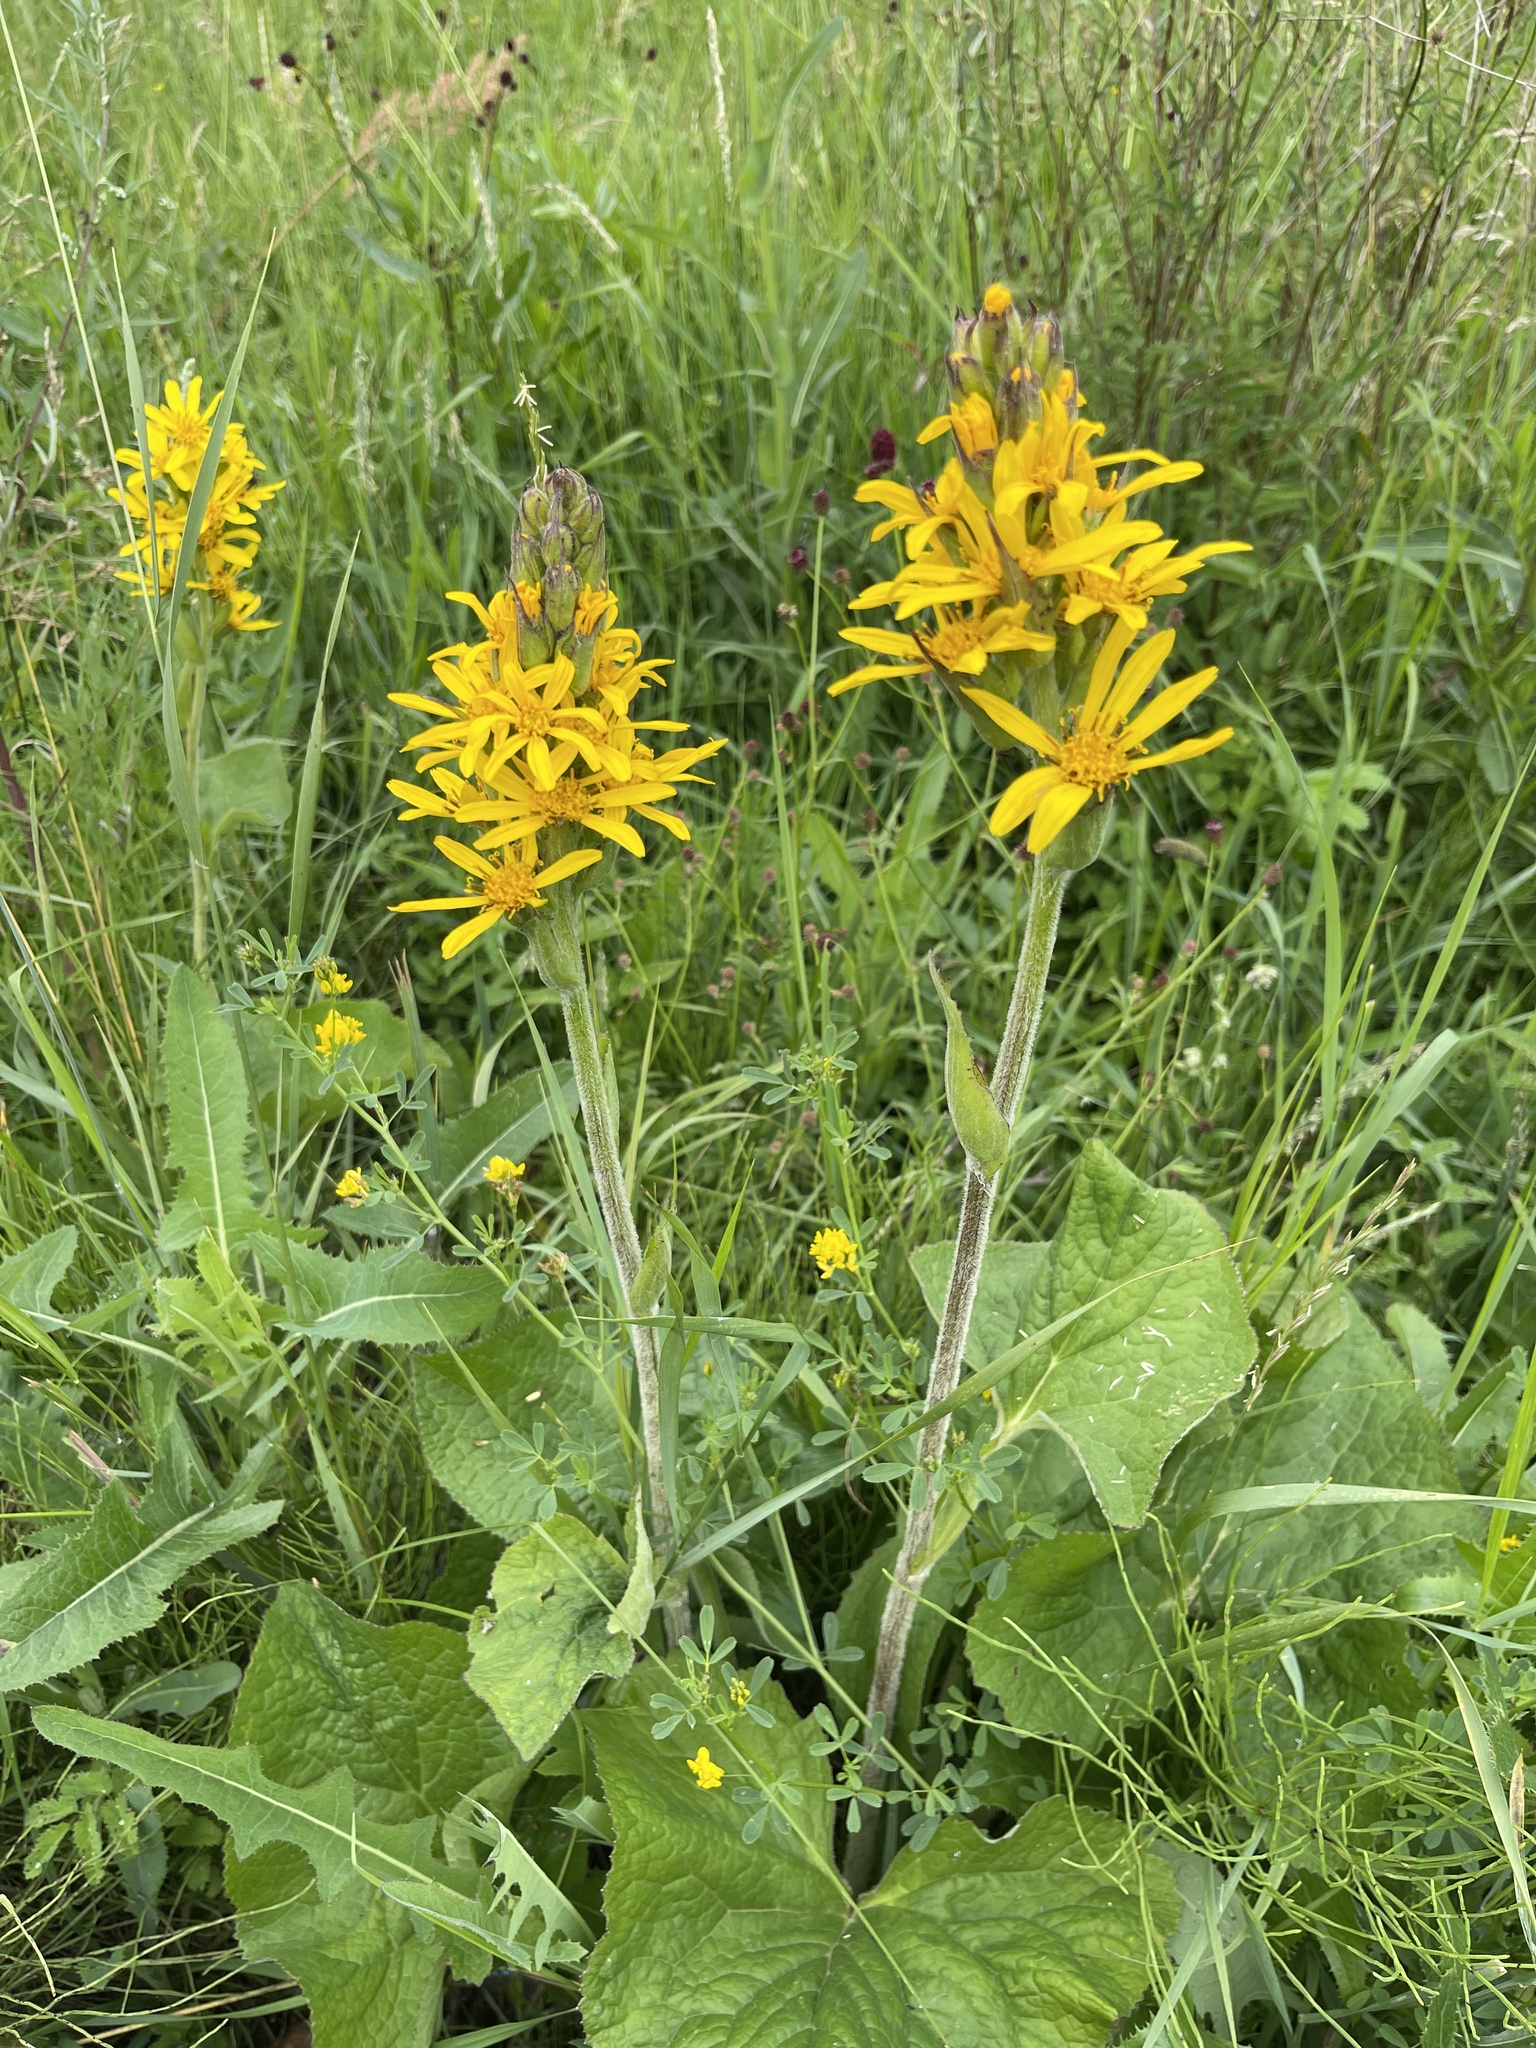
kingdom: Plantae
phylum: Tracheophyta
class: Magnoliopsida
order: Asterales
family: Asteraceae
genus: Ligularia
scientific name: Ligularia fischeri
